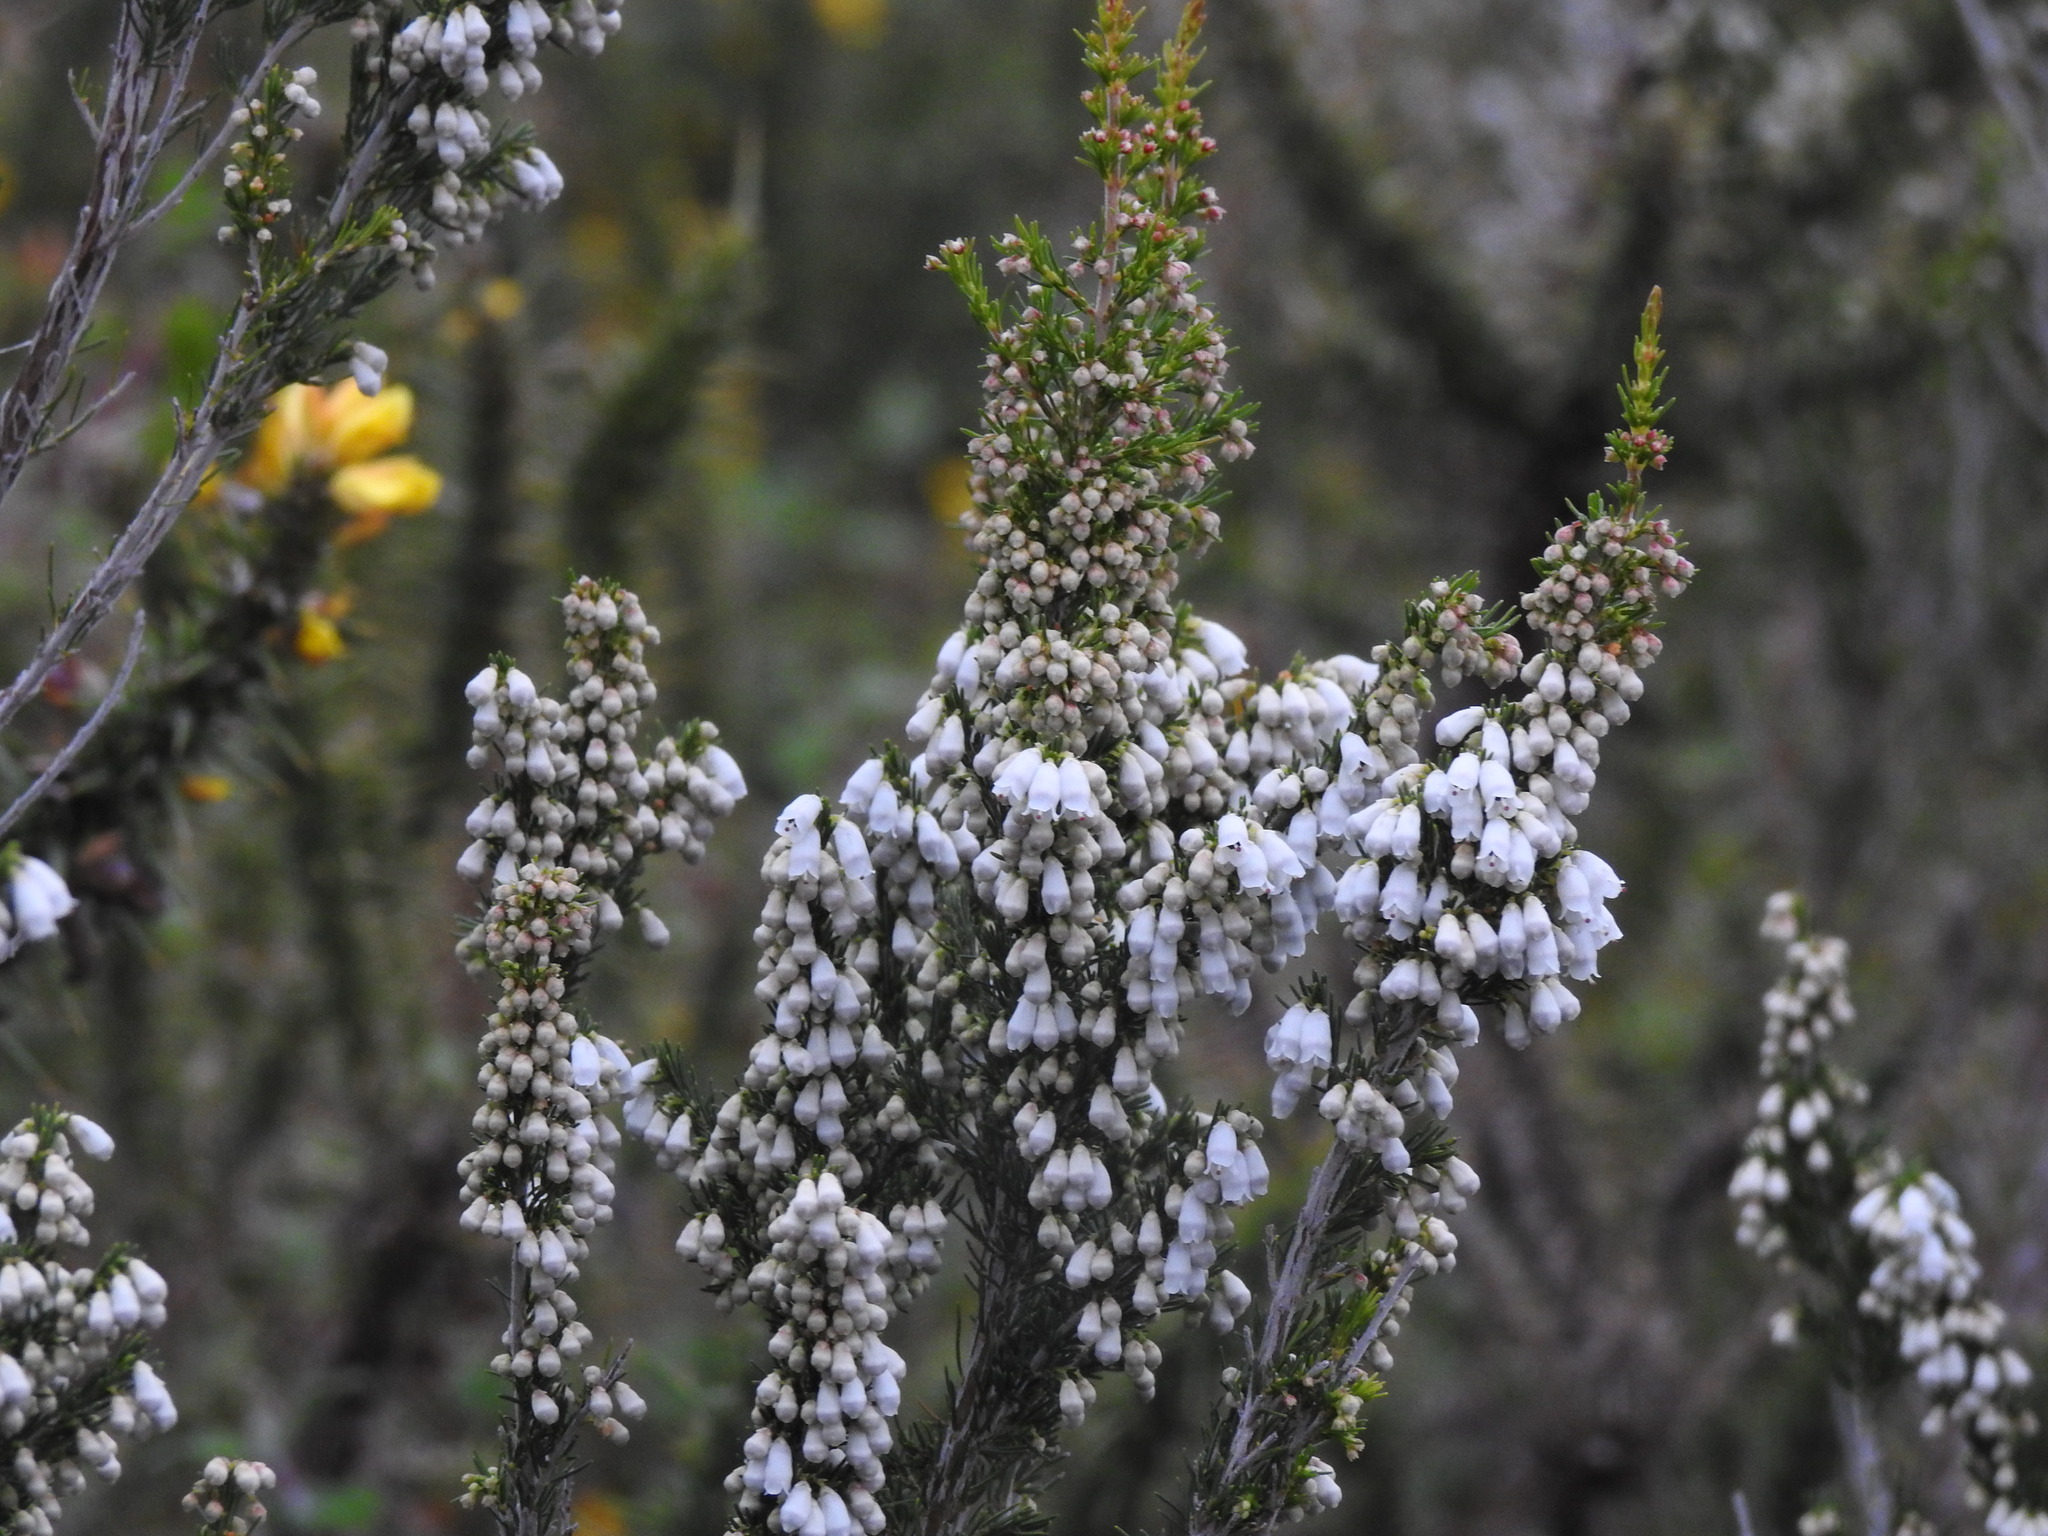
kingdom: Plantae
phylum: Tracheophyta
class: Magnoliopsida
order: Ericales
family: Ericaceae
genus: Erica
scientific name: Erica lusitanica
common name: Spanish heath
